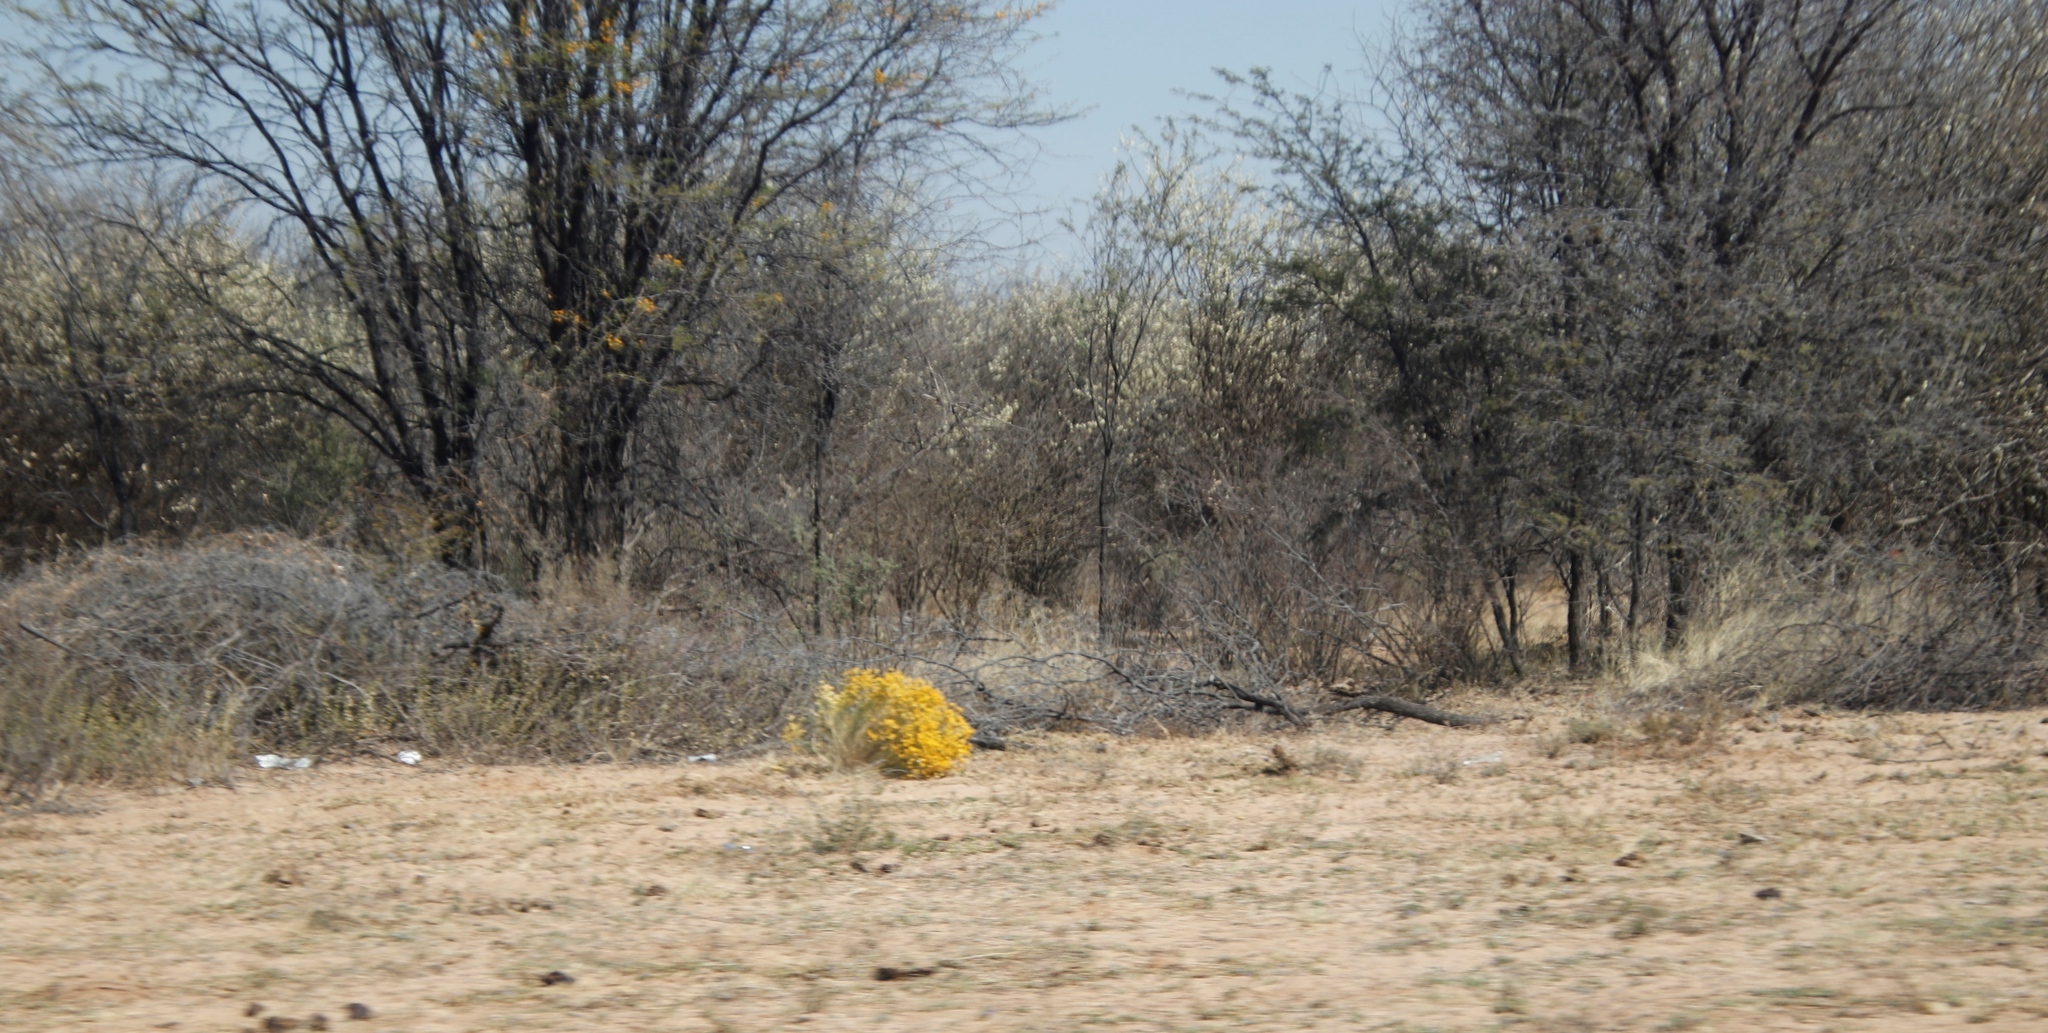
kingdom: Plantae
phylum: Tracheophyta
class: Magnoliopsida
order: Fabales
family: Fabaceae
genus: Senegalia
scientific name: Senegalia mellifera
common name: Hookthorn
